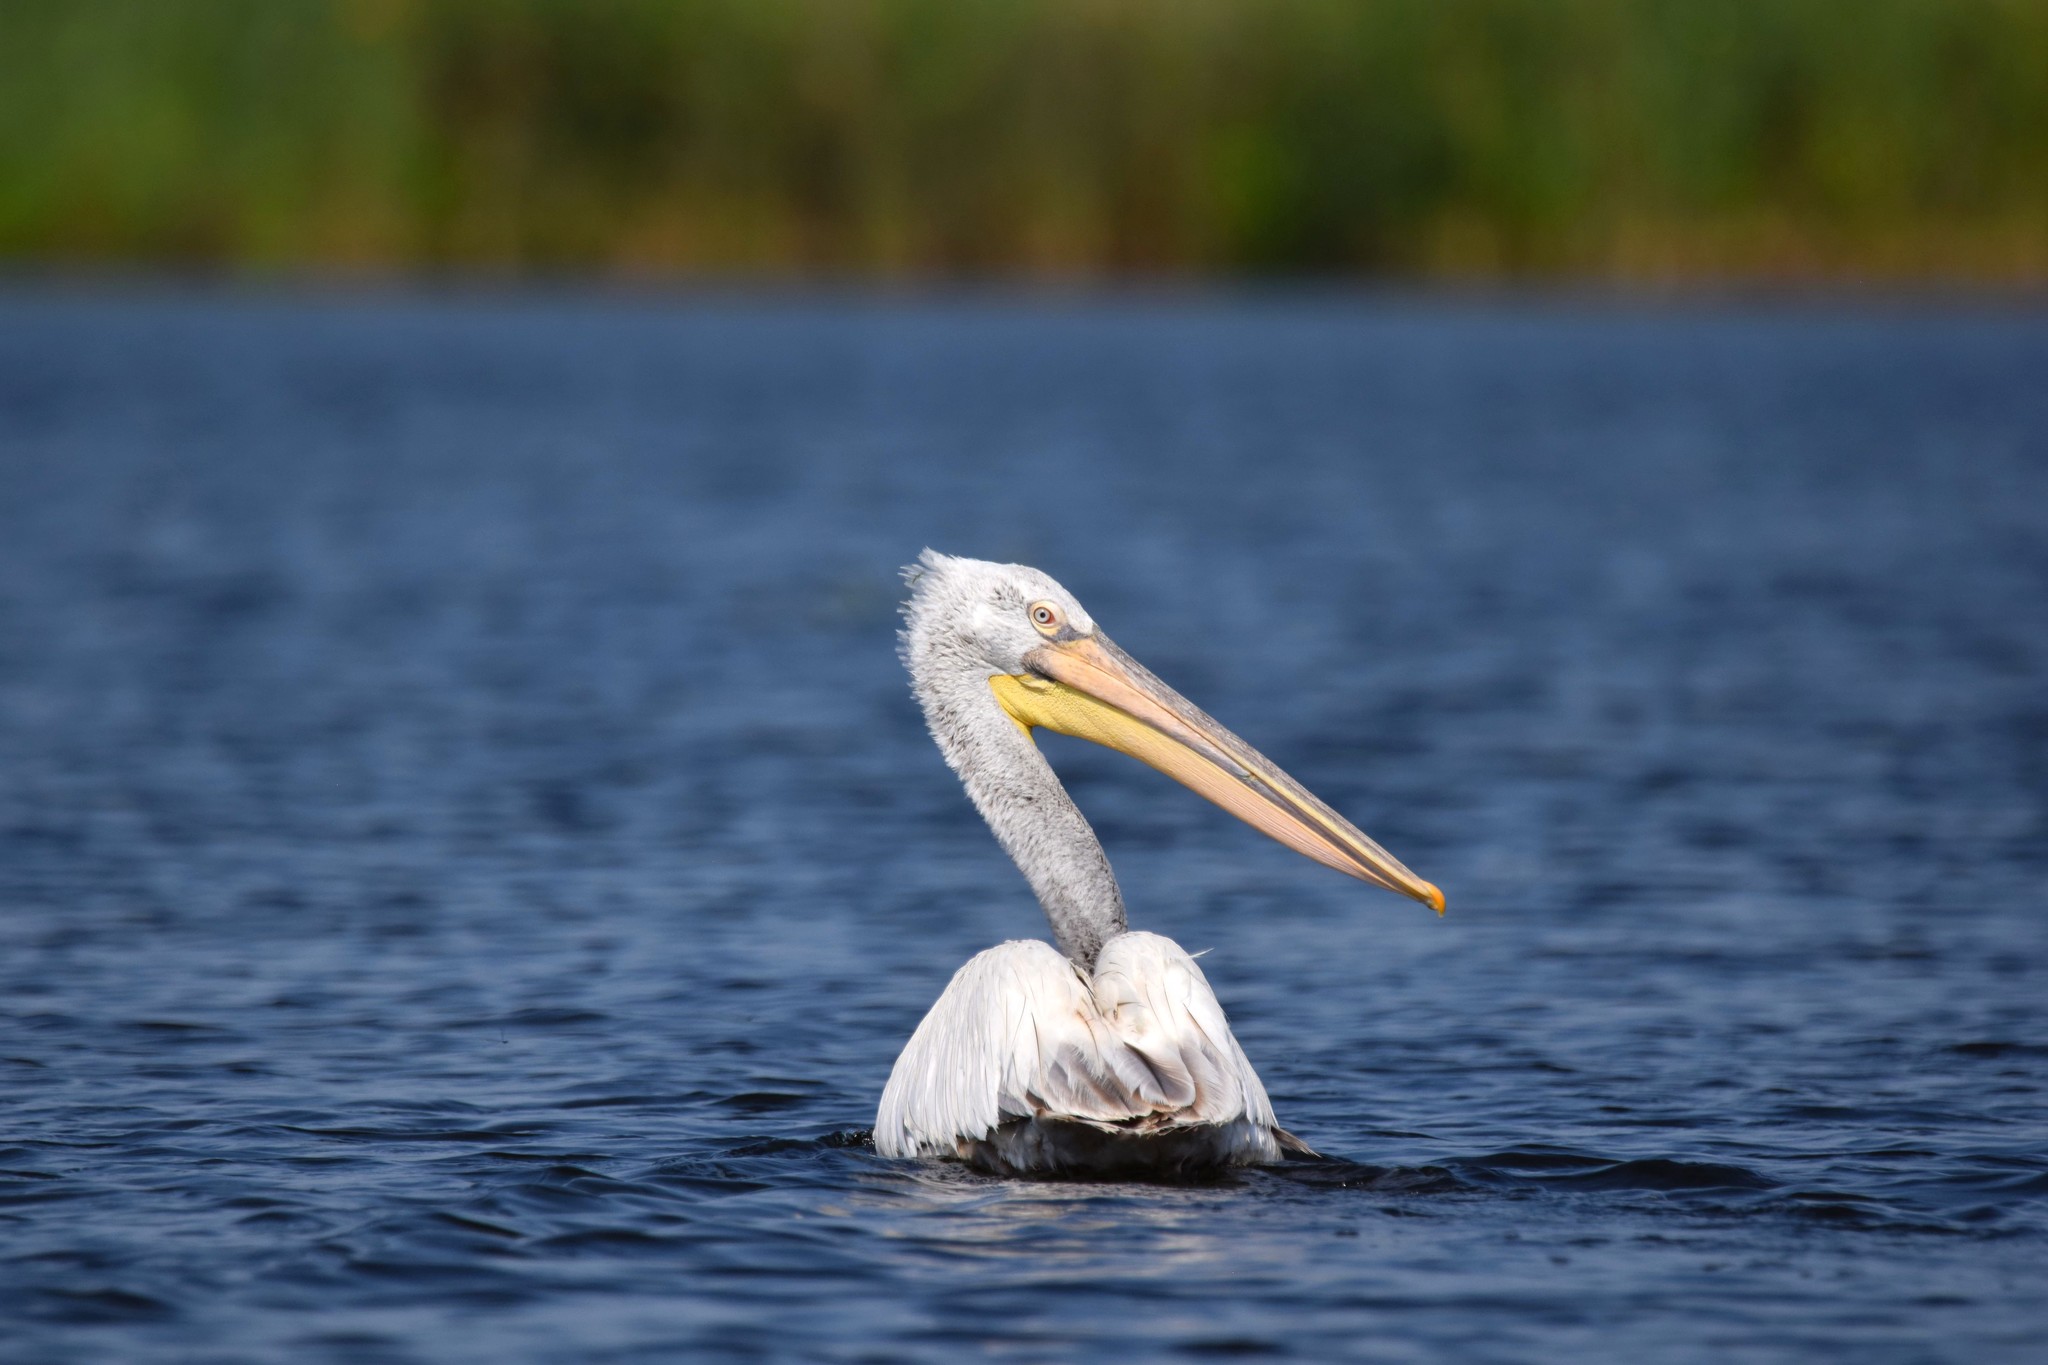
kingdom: Animalia
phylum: Chordata
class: Aves
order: Pelecaniformes
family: Pelecanidae
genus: Pelecanus
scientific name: Pelecanus crispus
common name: Dalmatian pelican
